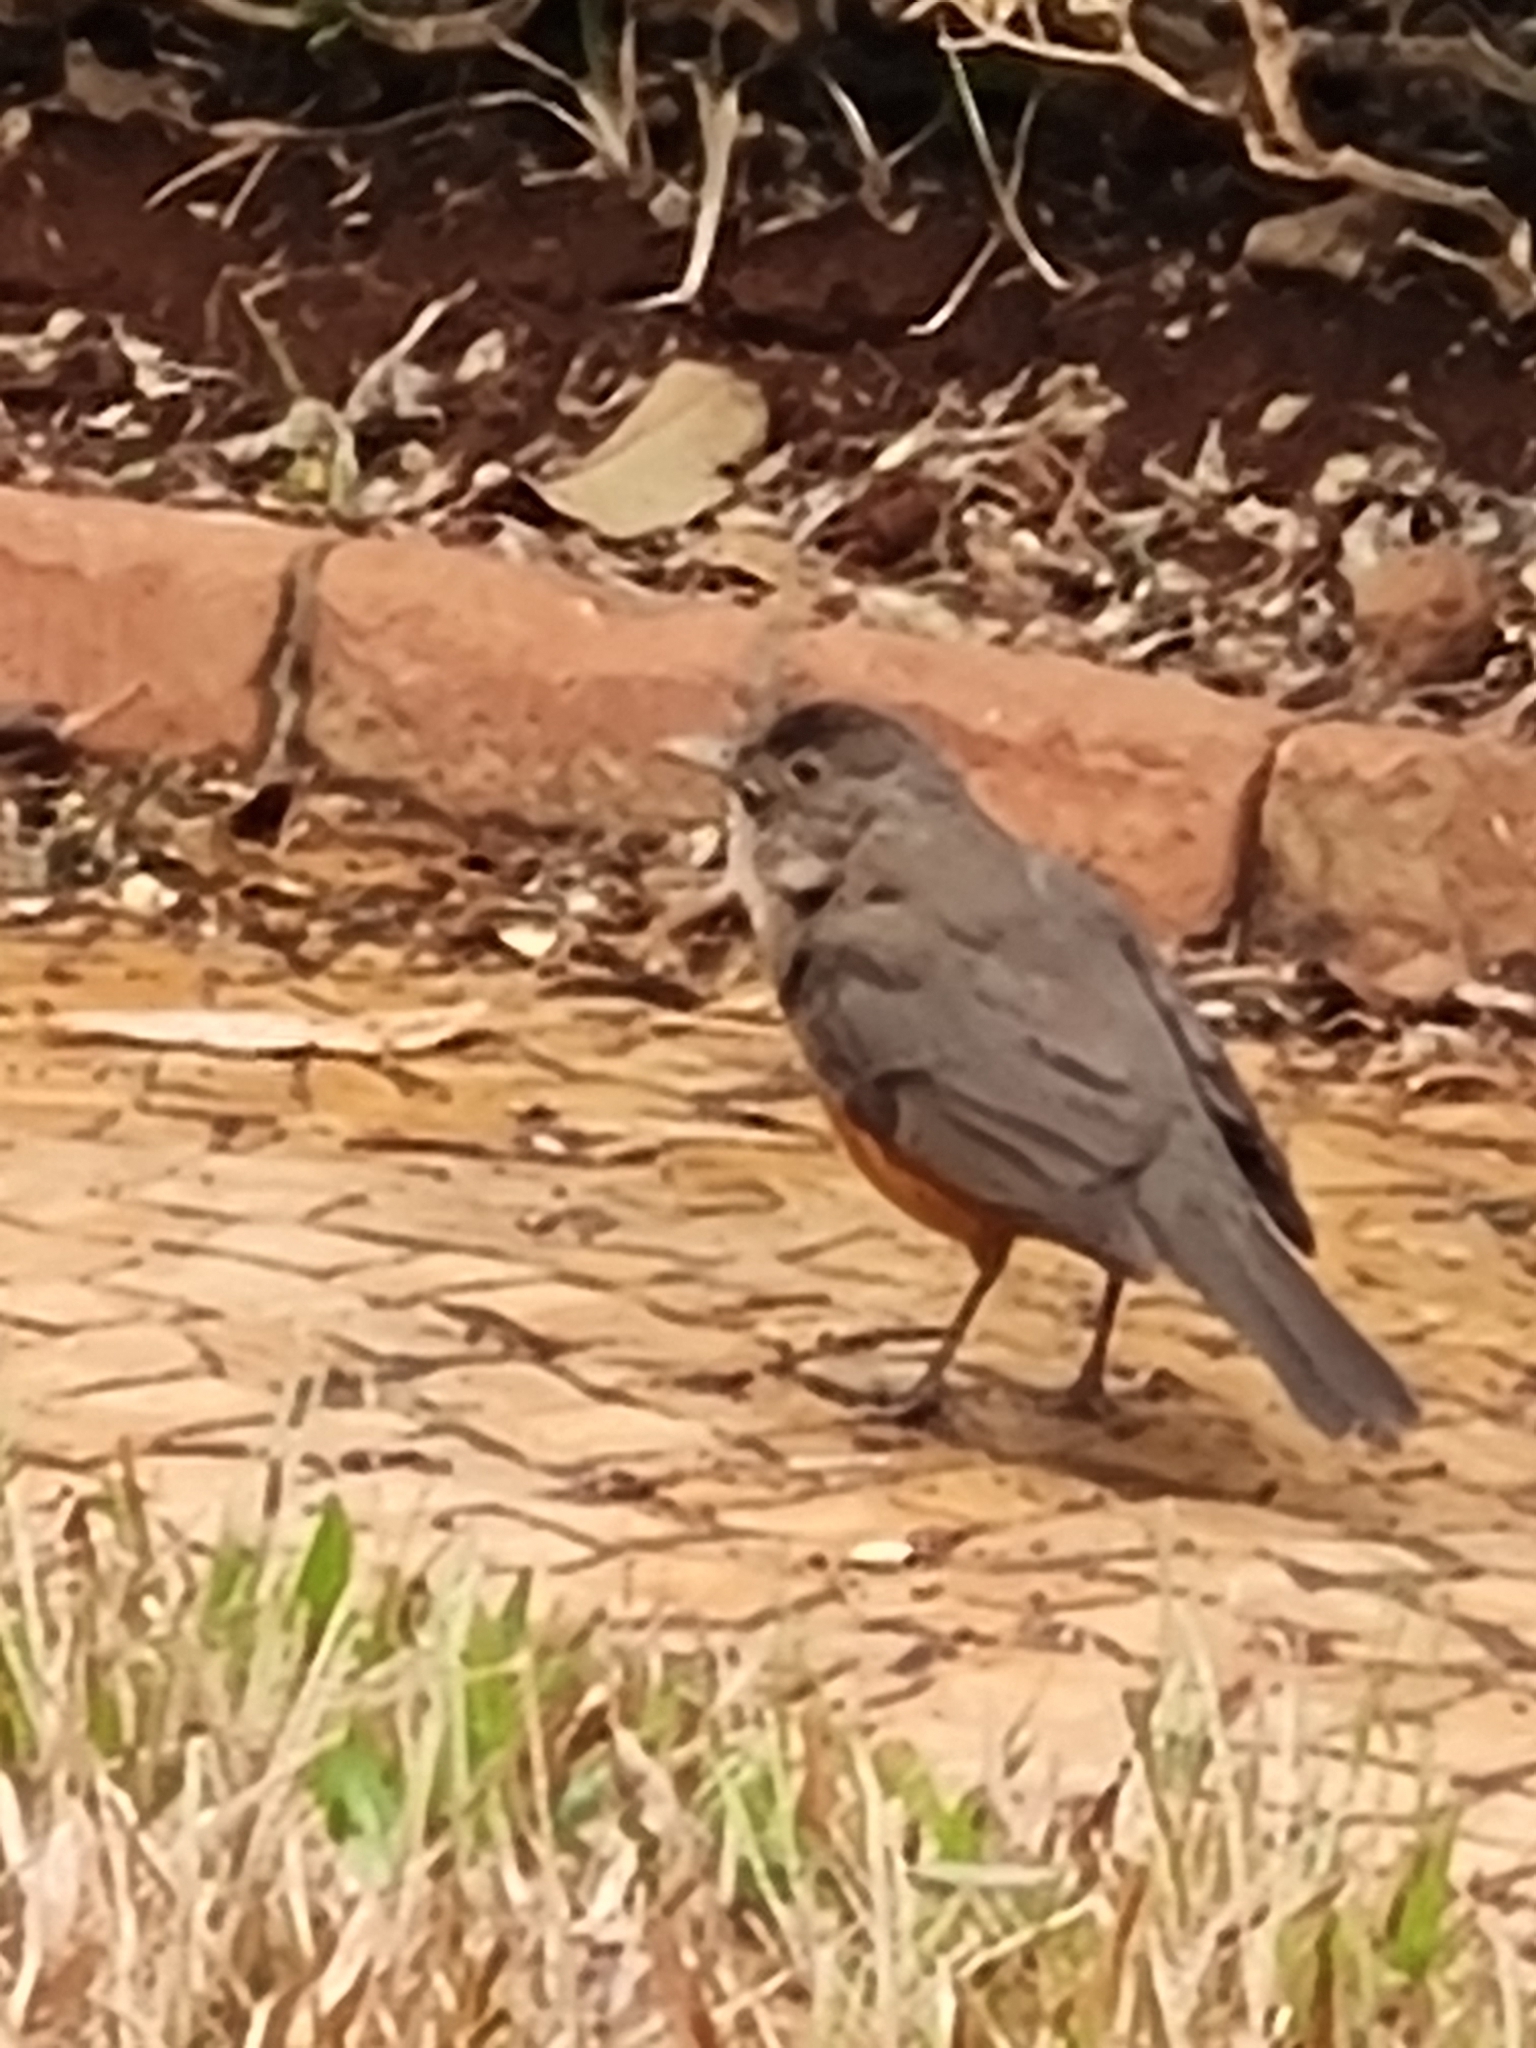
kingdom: Animalia
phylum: Chordata
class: Aves
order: Passeriformes
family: Turdidae
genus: Turdus
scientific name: Turdus rufiventris
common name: Rufous-bellied thrush
